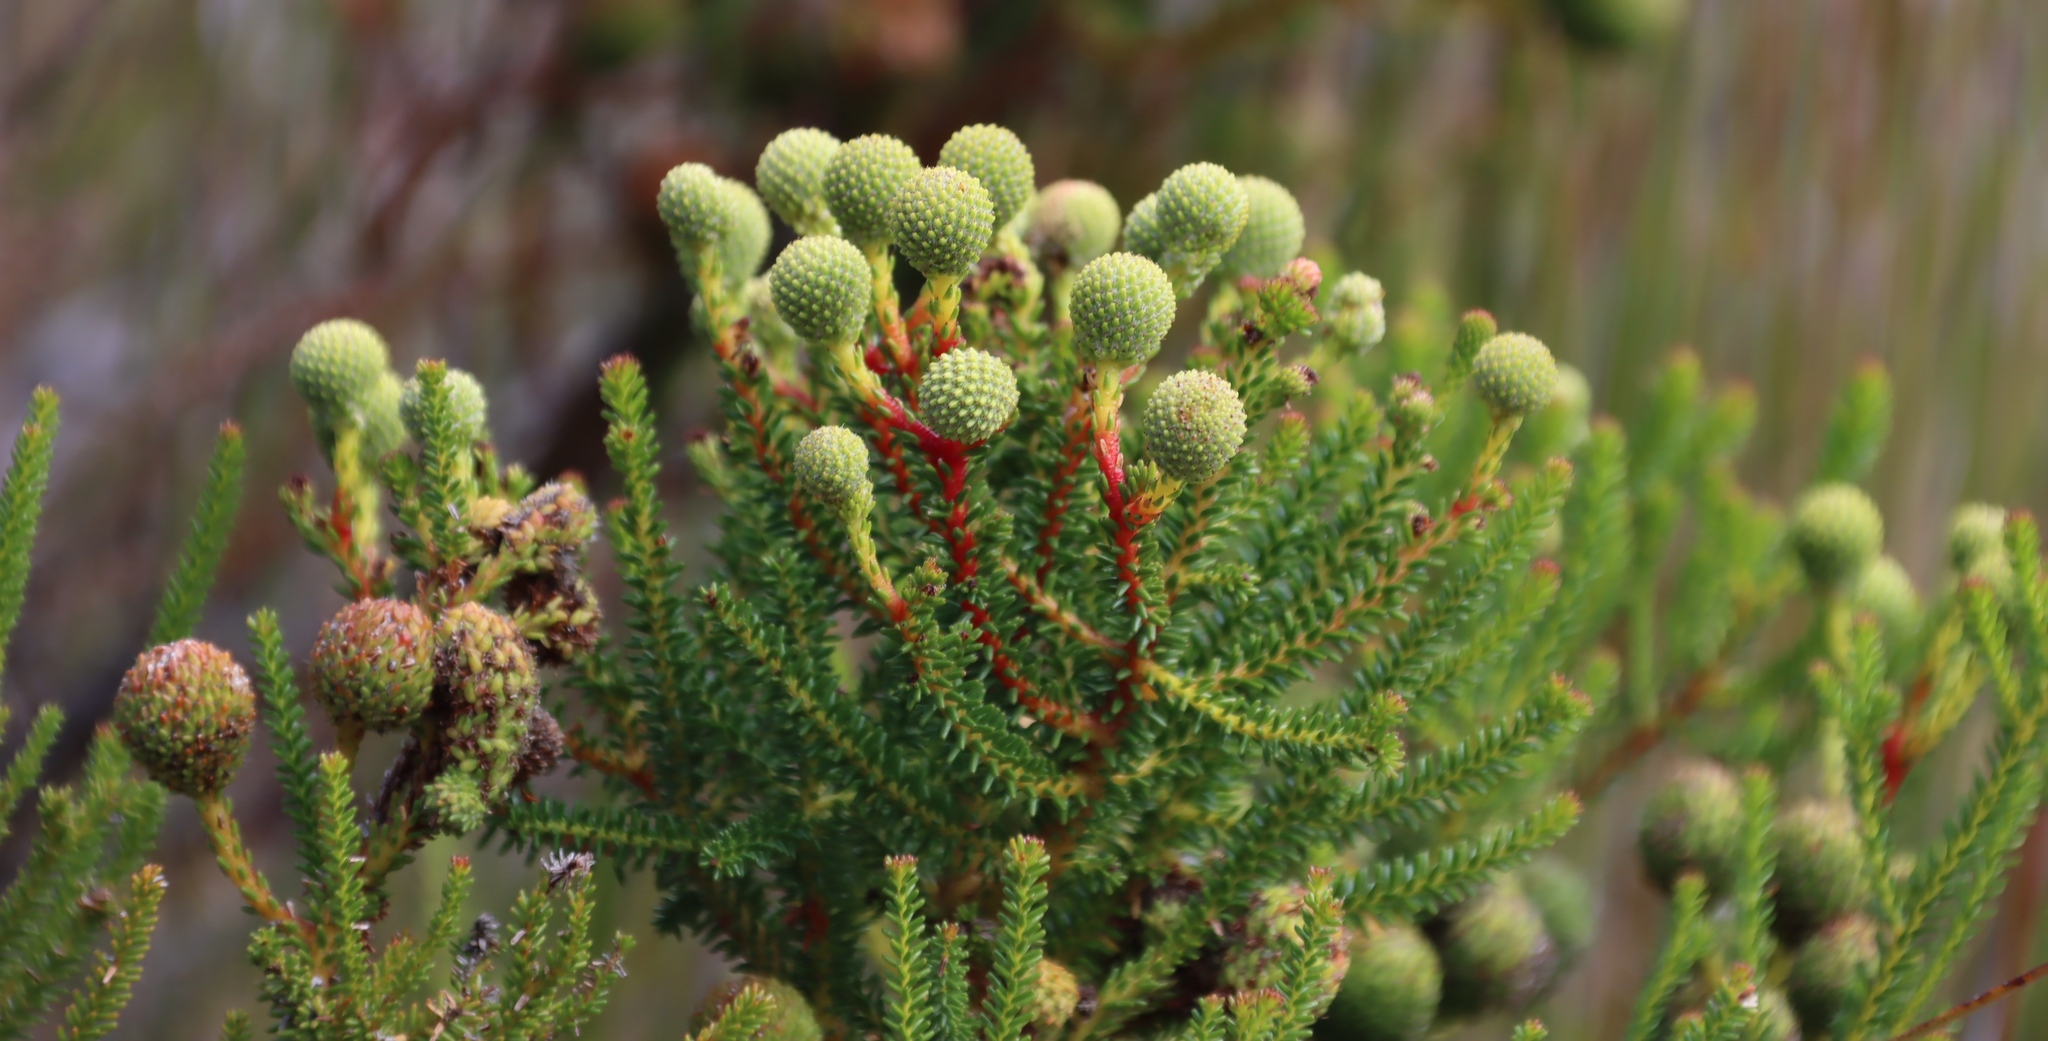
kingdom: Plantae
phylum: Tracheophyta
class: Magnoliopsida
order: Bruniales
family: Bruniaceae
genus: Berzelia
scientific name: Berzelia abrotanoides
